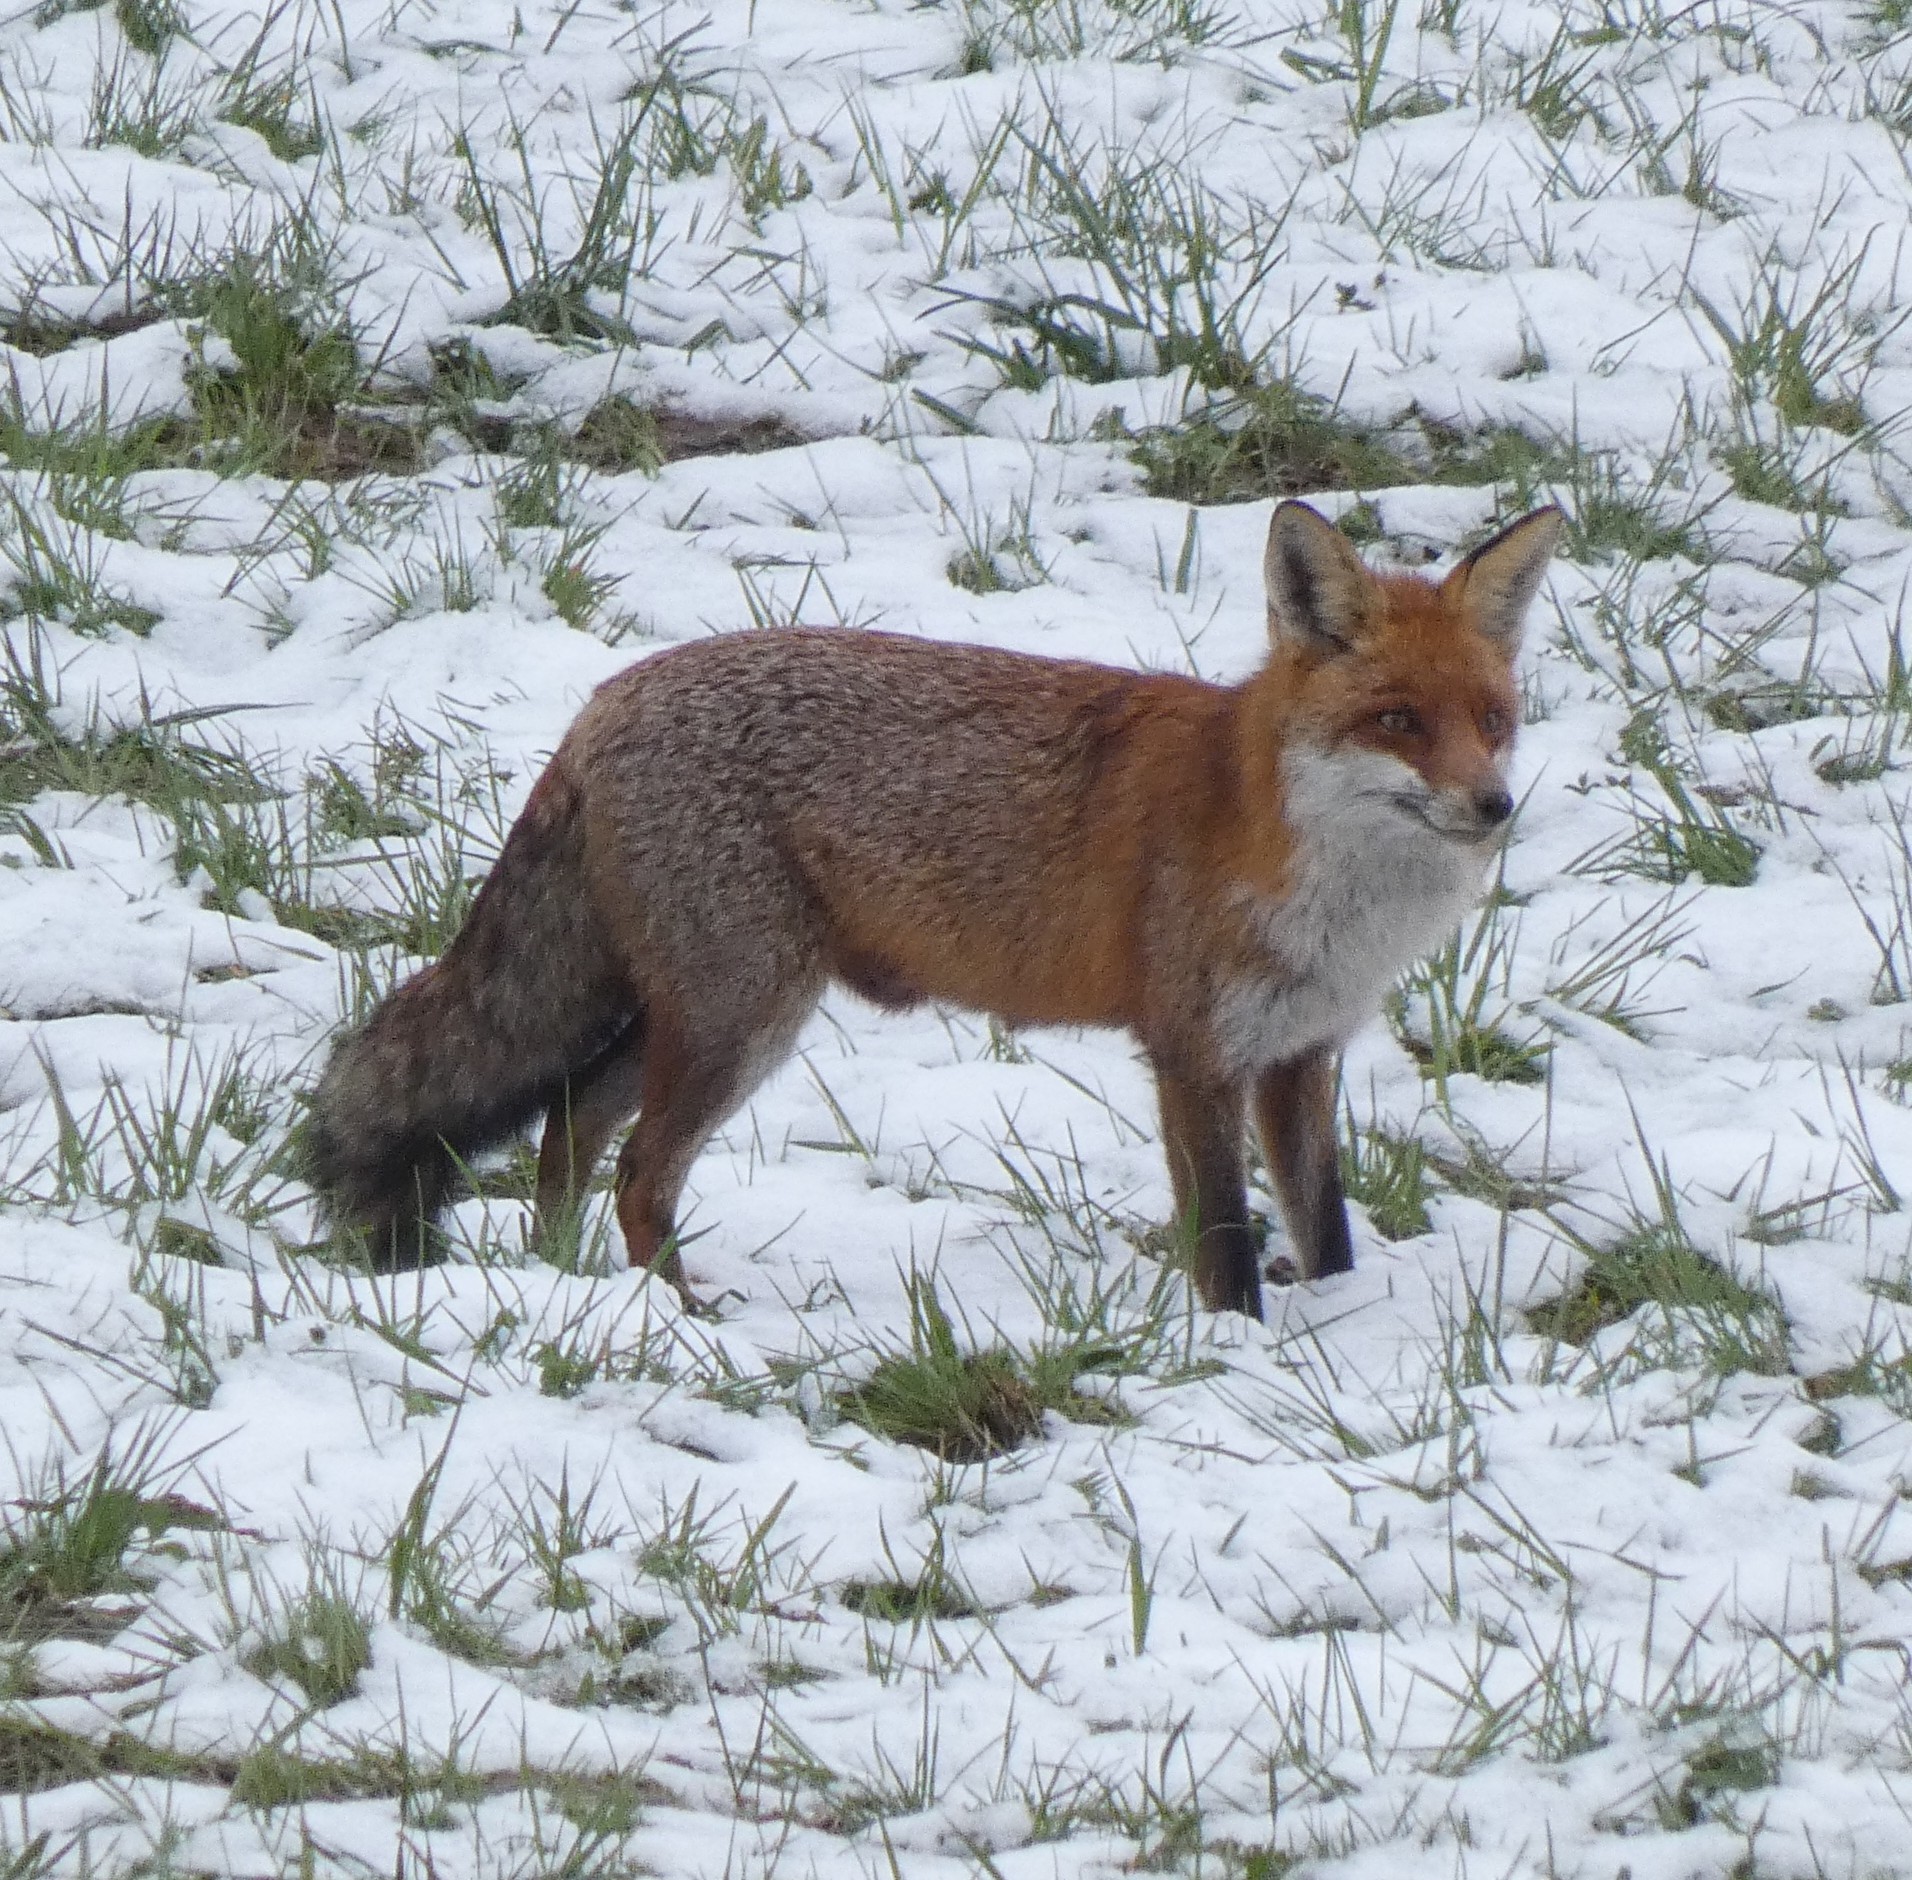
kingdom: Animalia
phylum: Chordata
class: Mammalia
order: Carnivora
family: Canidae
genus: Vulpes
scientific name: Vulpes vulpes
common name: Red fox
